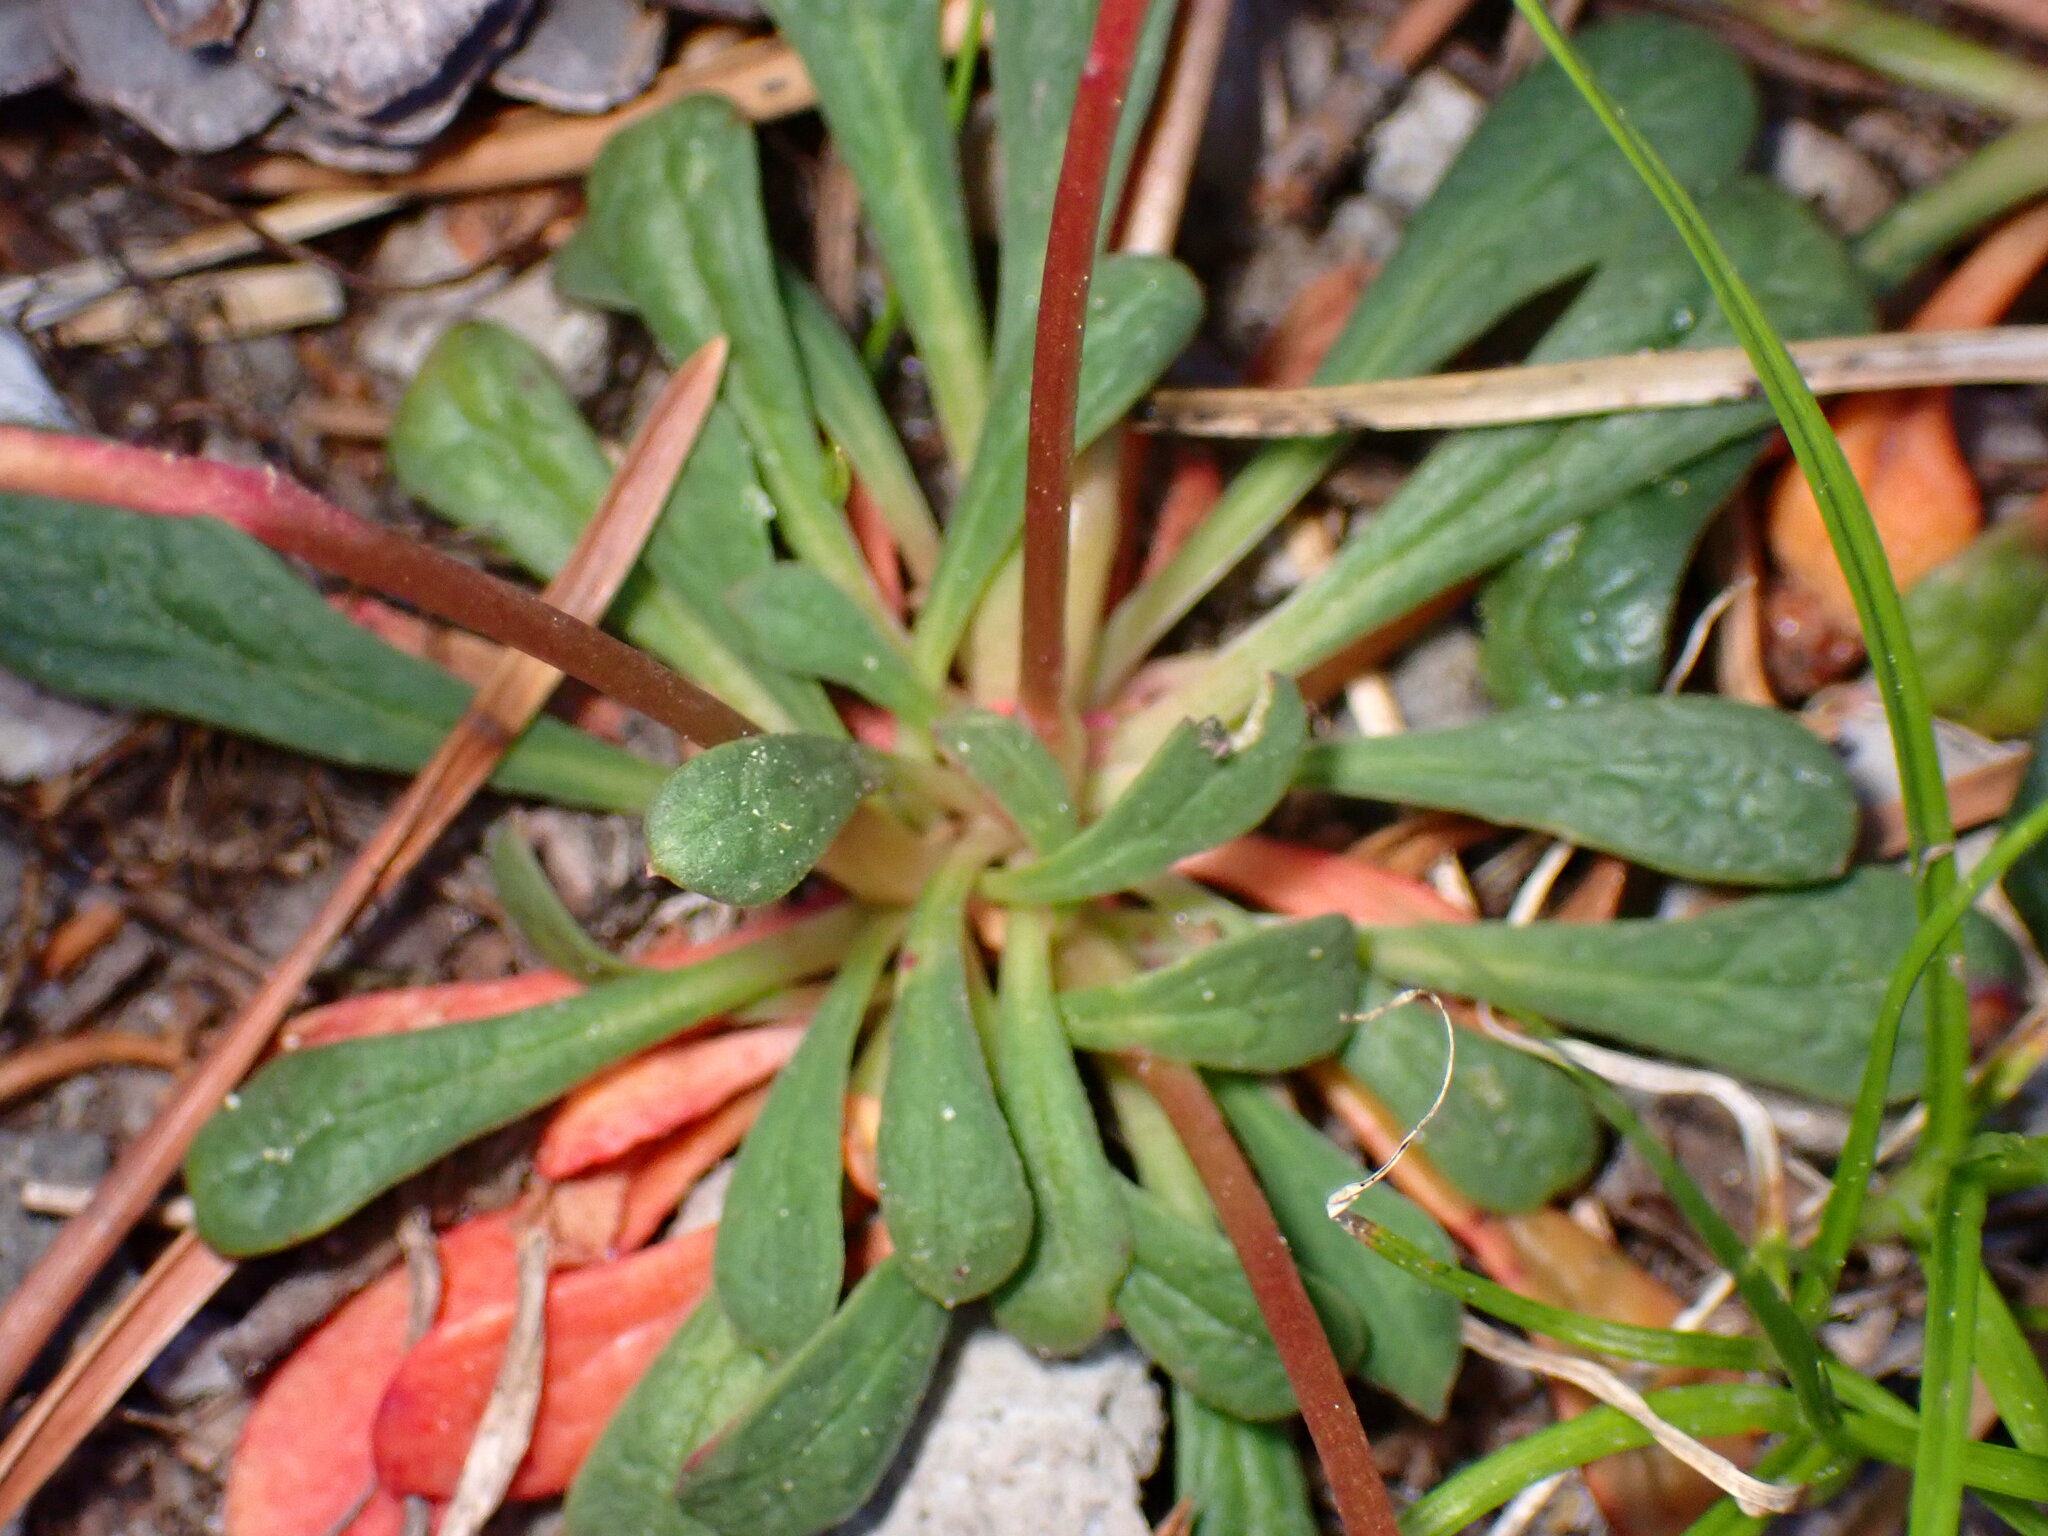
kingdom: Plantae
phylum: Tracheophyta
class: Magnoliopsida
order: Caryophyllales
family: Montiaceae
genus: Calyptridium
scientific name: Calyptridium umbellatum
